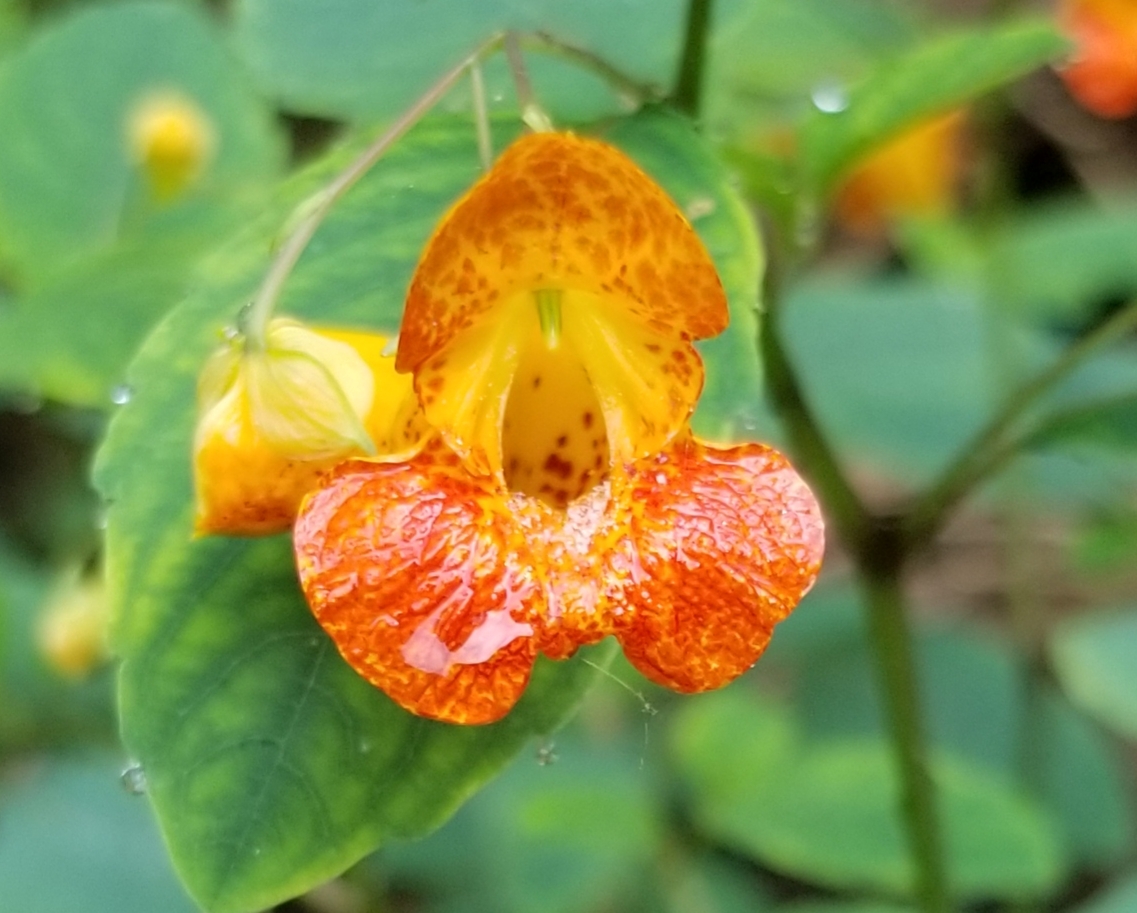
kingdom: Plantae
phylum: Tracheophyta
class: Magnoliopsida
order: Ericales
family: Balsaminaceae
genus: Impatiens
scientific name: Impatiens capensis
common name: Orange balsam
